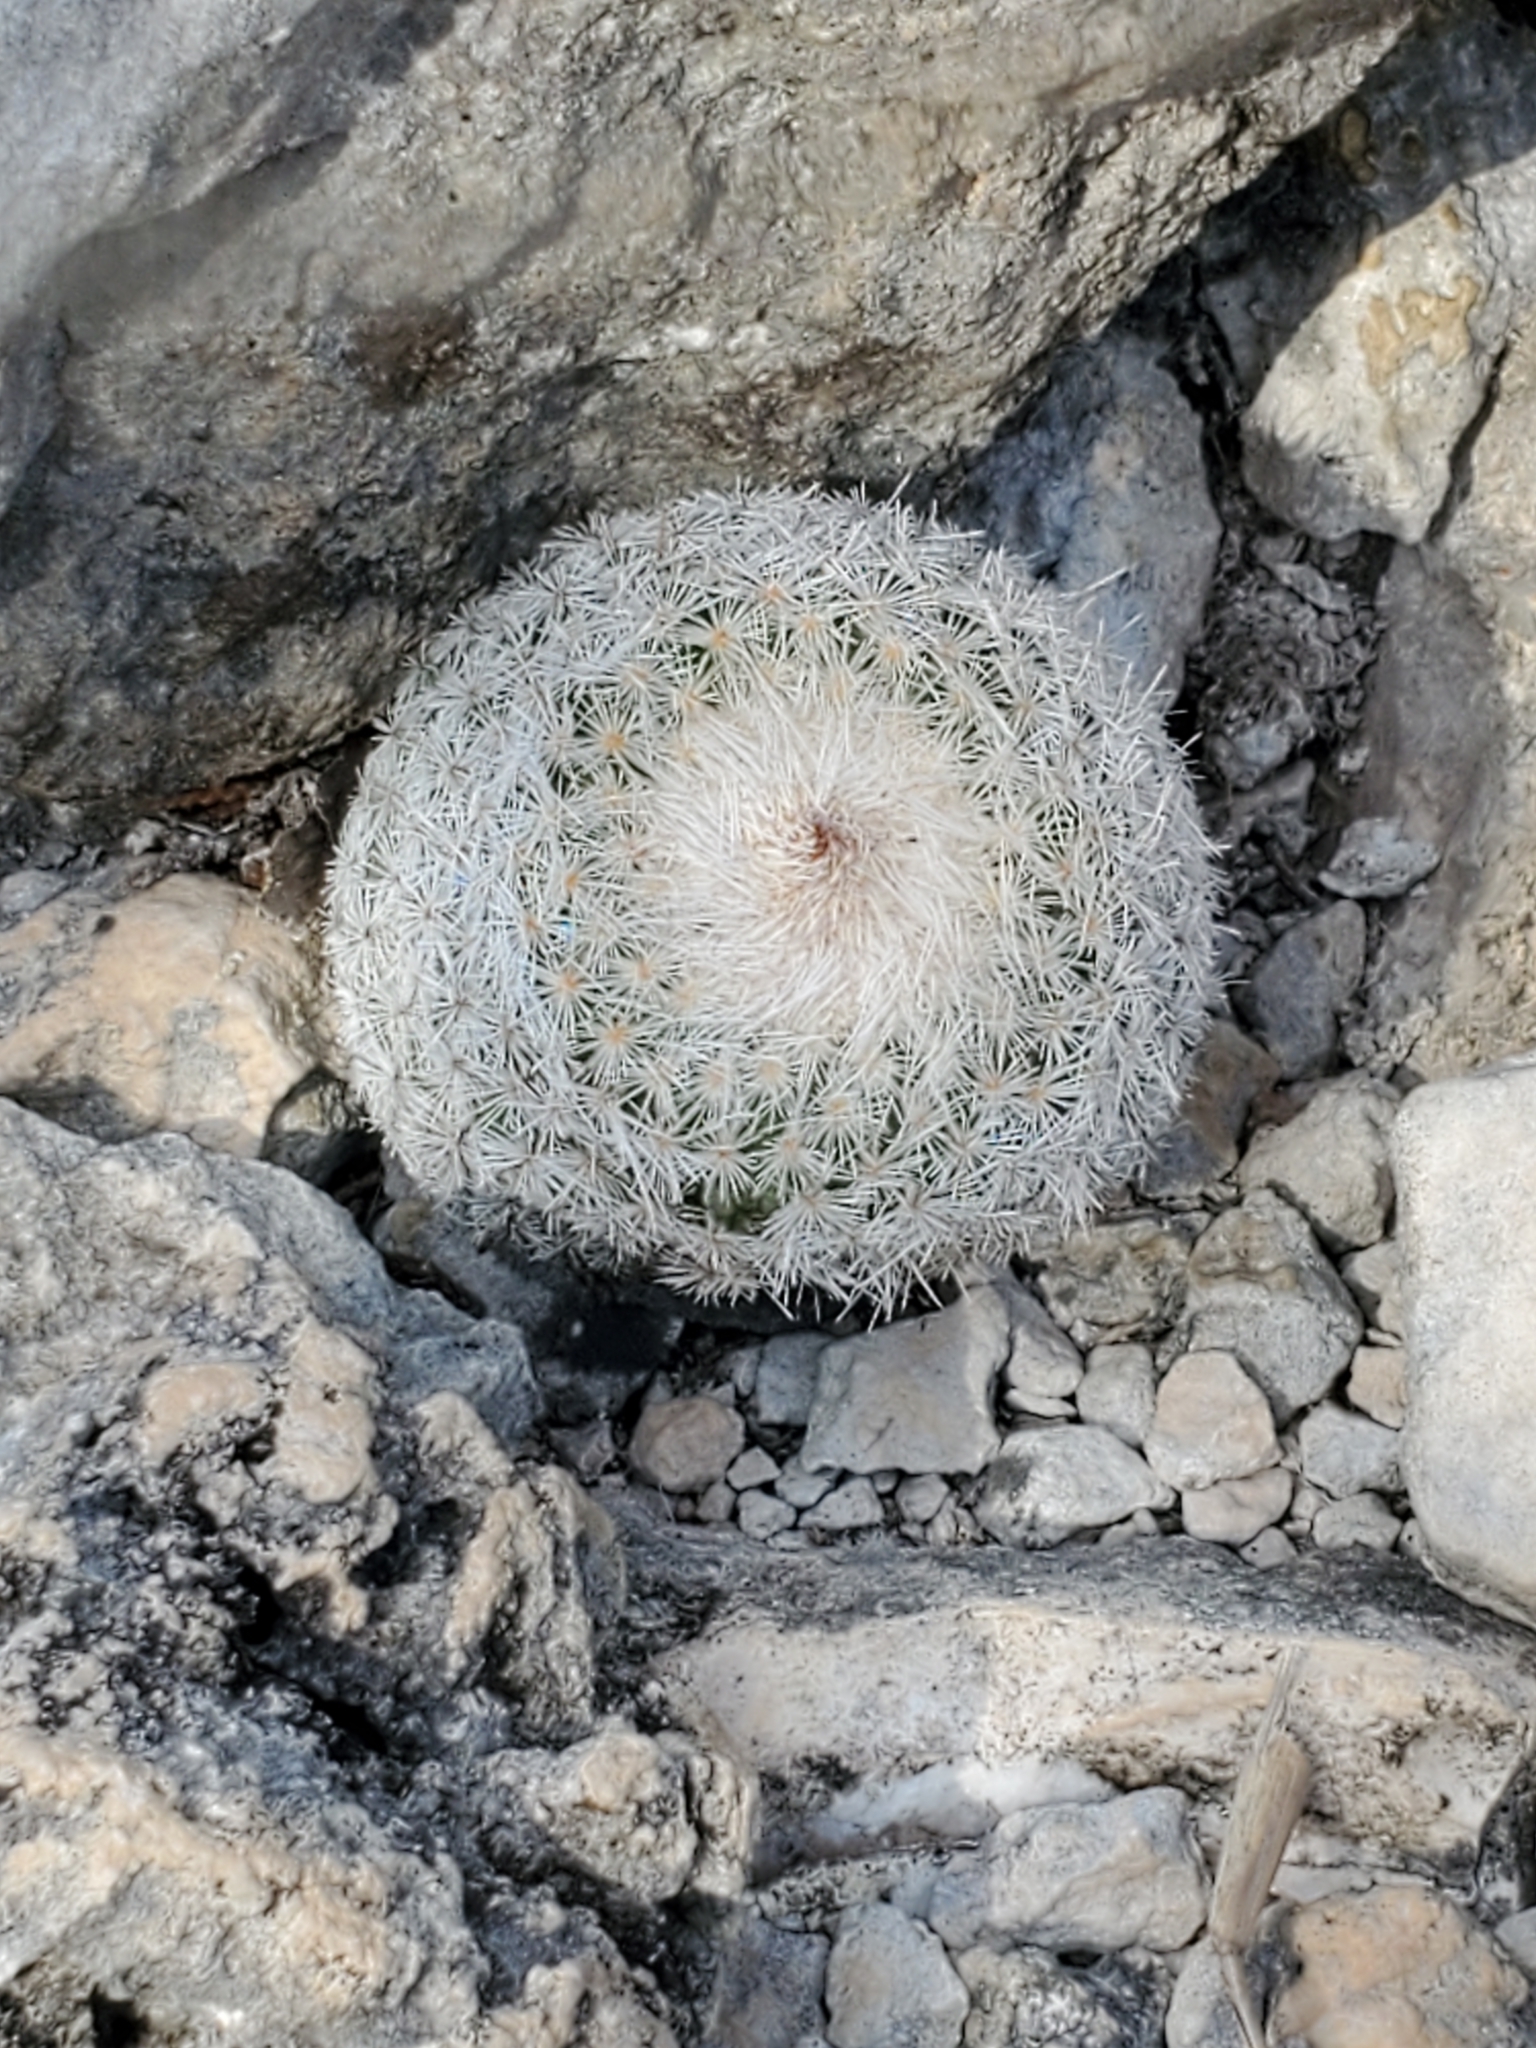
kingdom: Plantae
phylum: Tracheophyta
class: Magnoliopsida
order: Caryophyllales
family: Cactaceae
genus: Epithelantha
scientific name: Epithelantha micromeris
